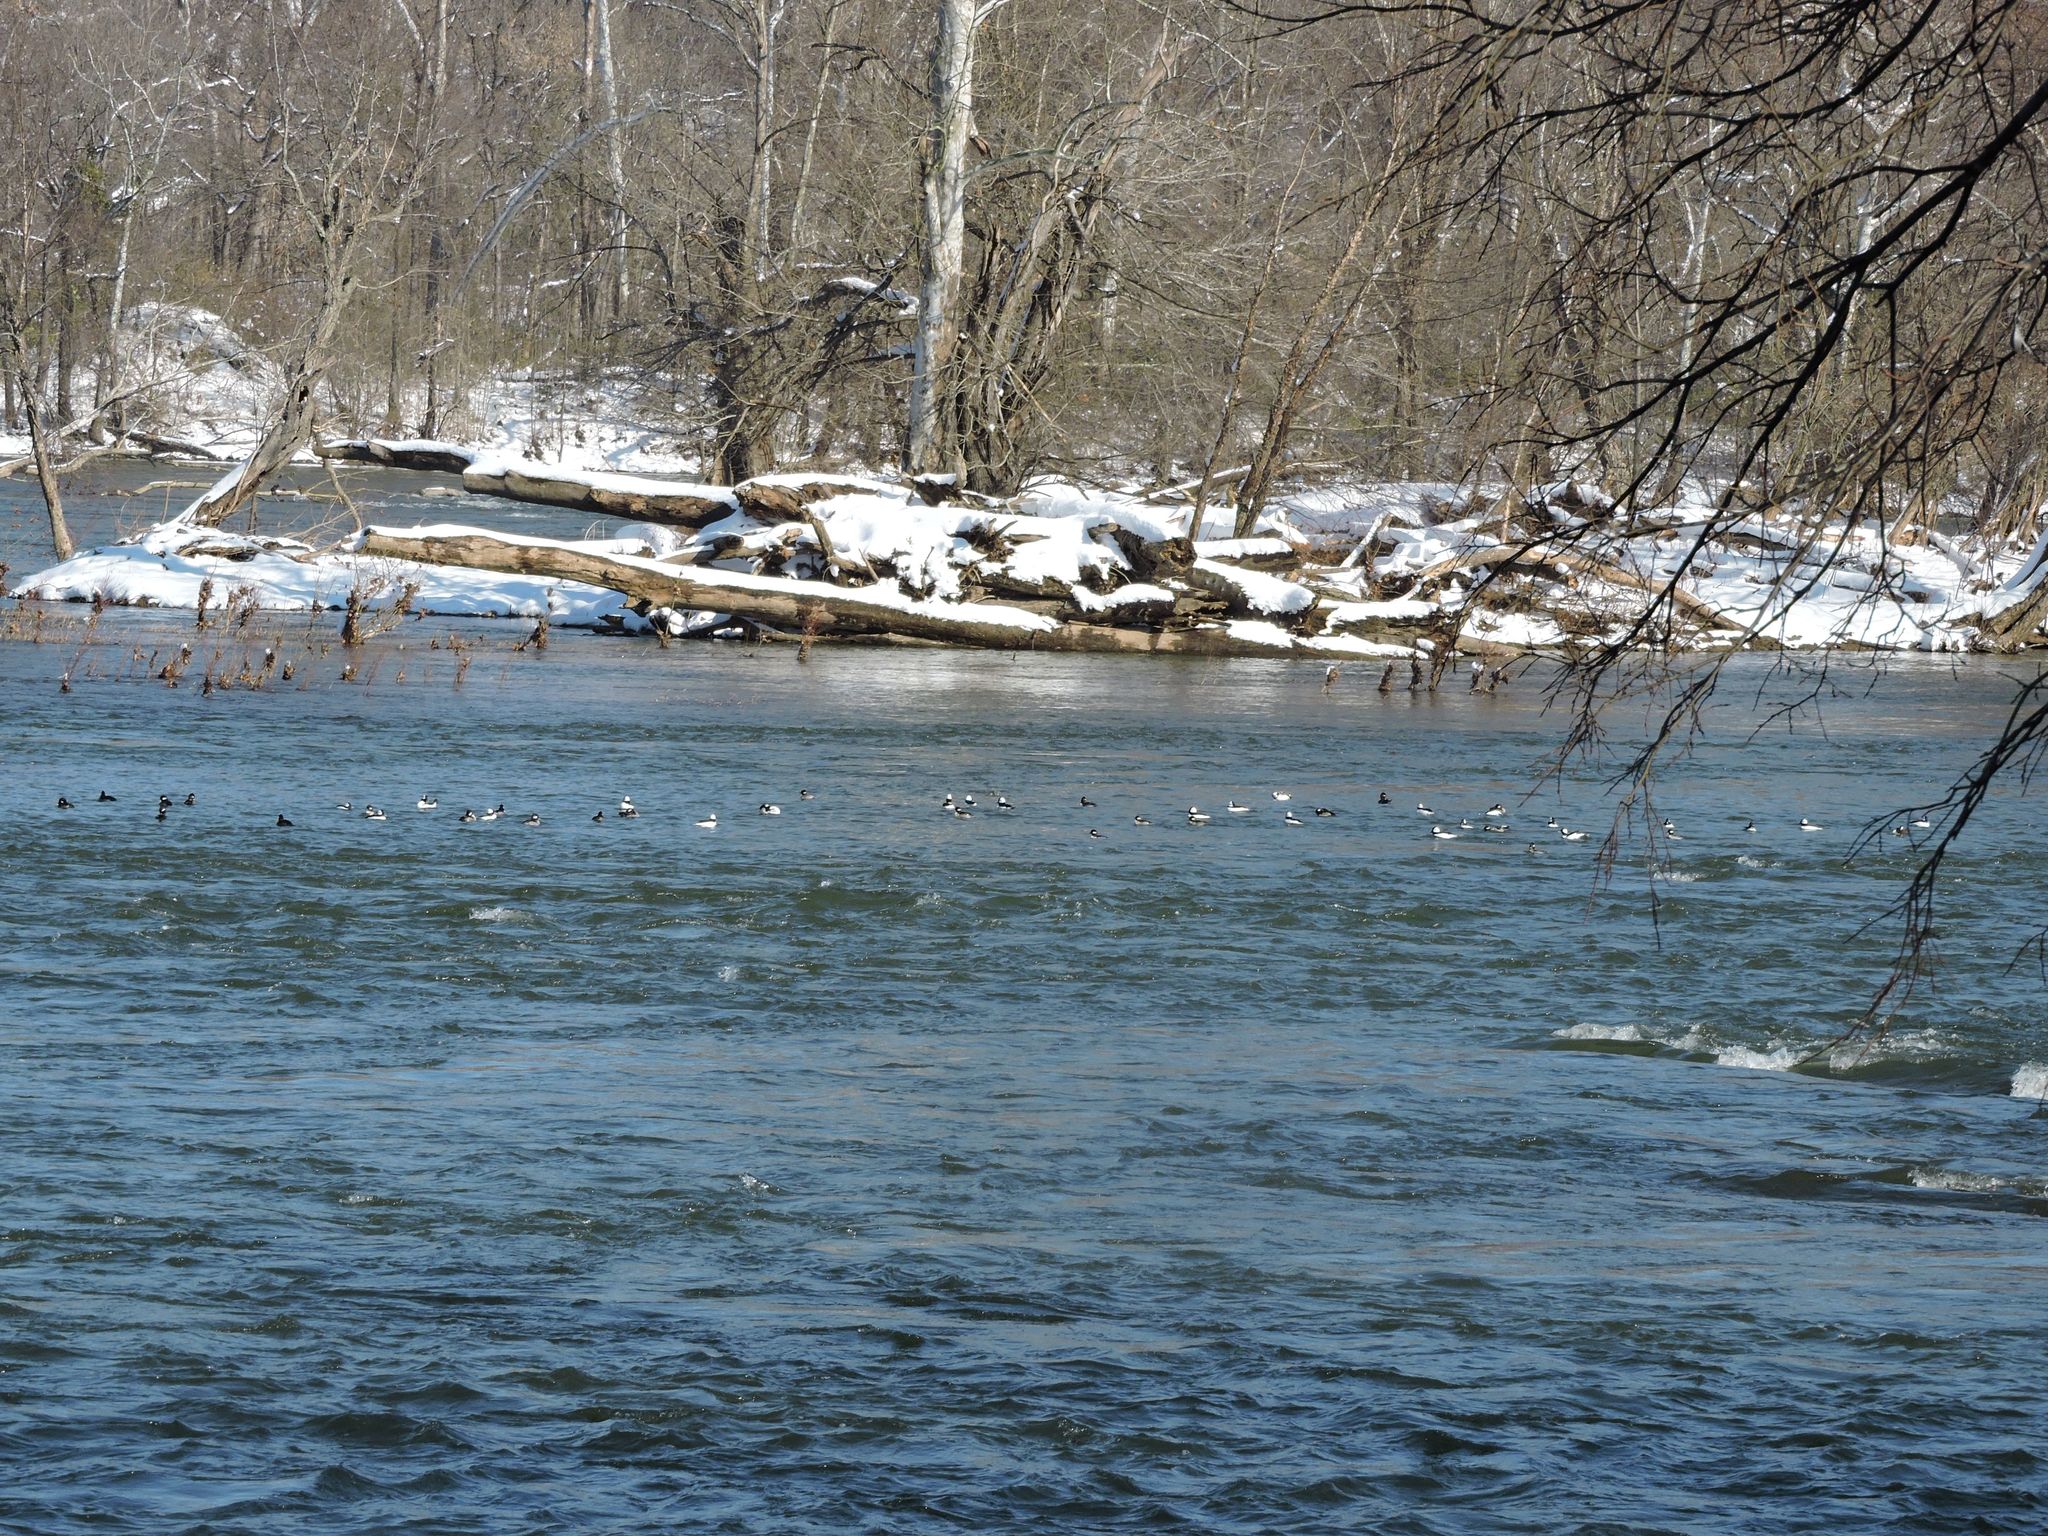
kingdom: Animalia
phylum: Chordata
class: Aves
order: Anseriformes
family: Anatidae
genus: Bucephala
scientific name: Bucephala albeola
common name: Bufflehead
